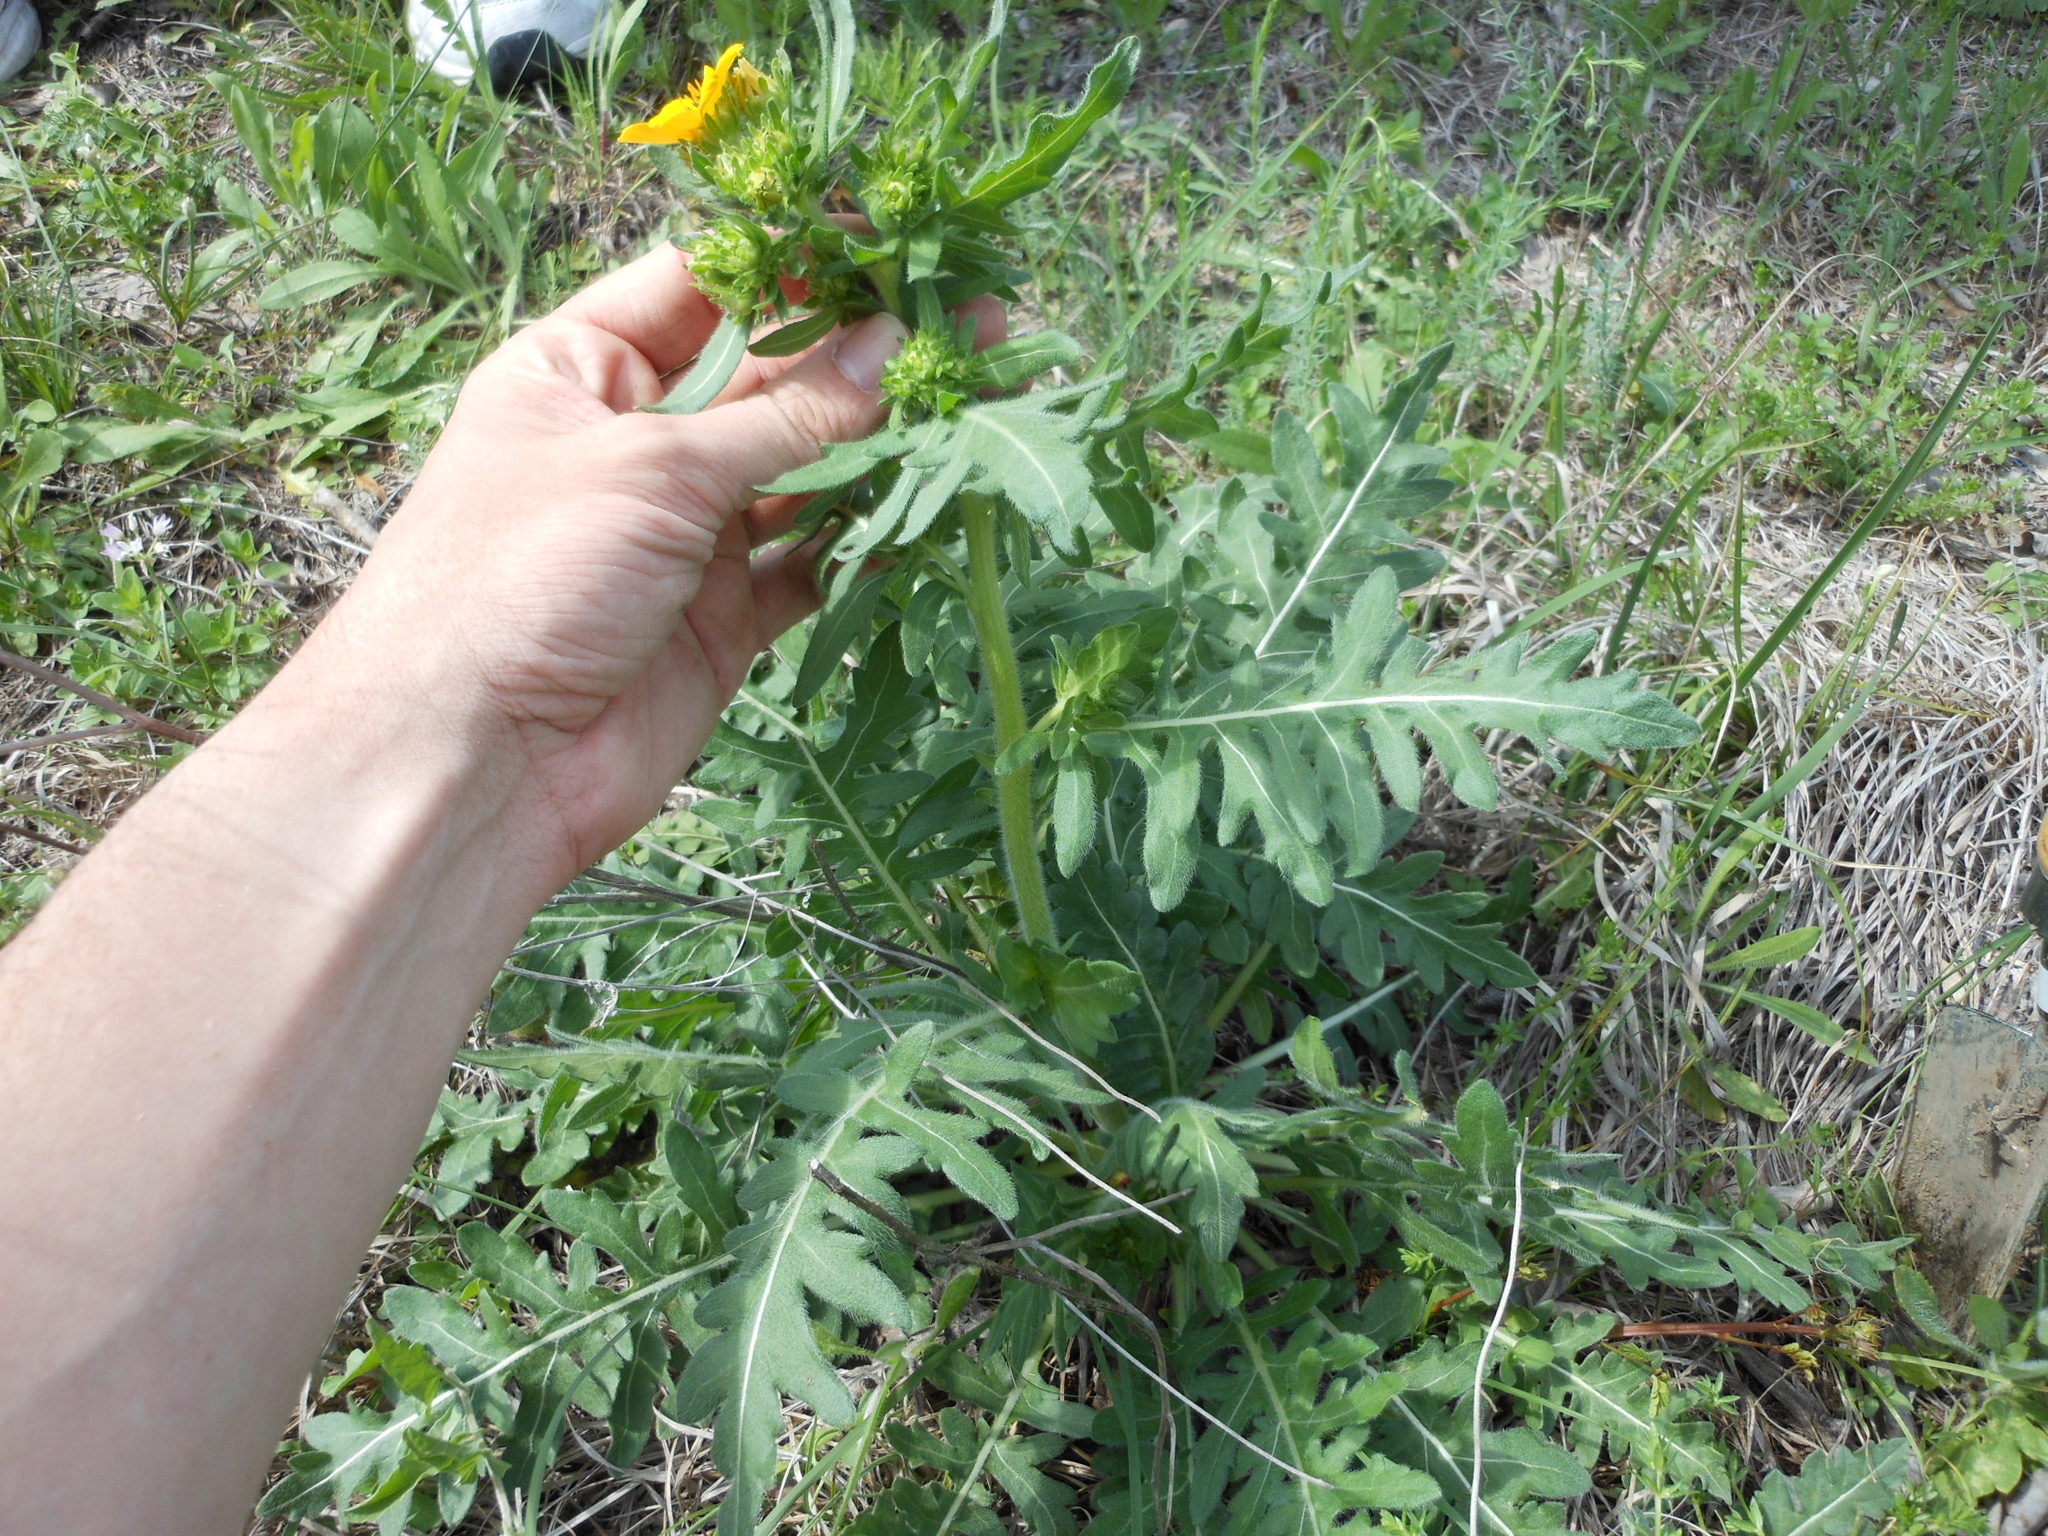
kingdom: Plantae
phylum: Tracheophyta
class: Magnoliopsida
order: Asterales
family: Asteraceae
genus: Engelmannia
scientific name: Engelmannia peristenia
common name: Engelmann's daisy
